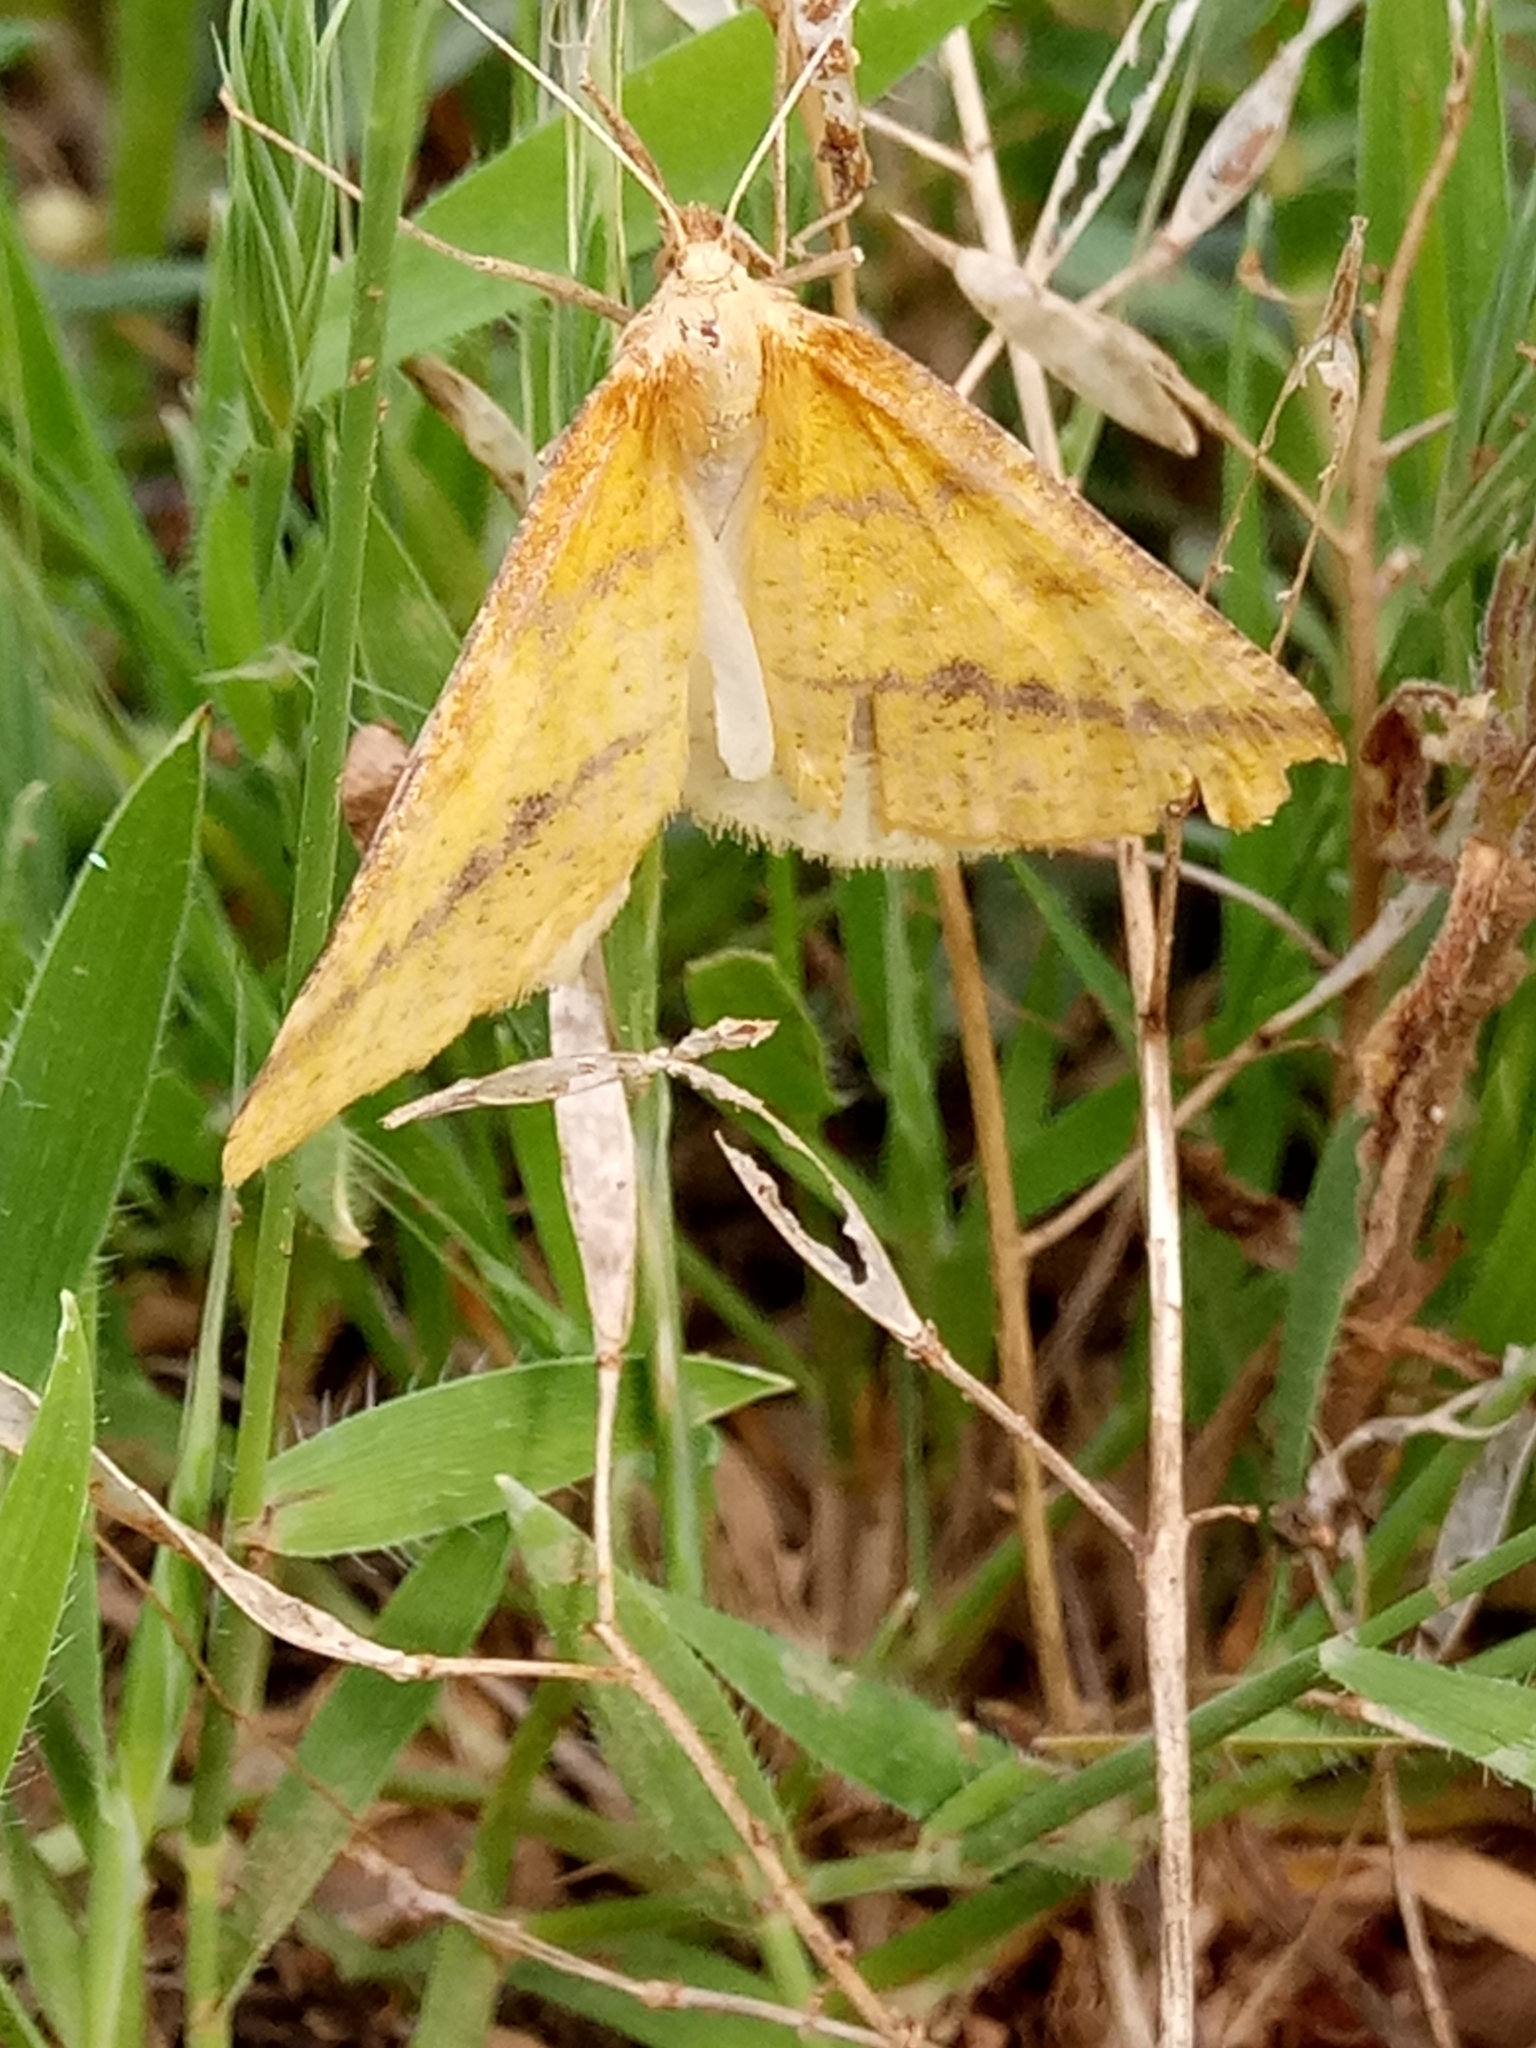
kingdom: Animalia
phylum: Arthropoda
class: Insecta
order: Lepidoptera
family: Geometridae
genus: Aspitates
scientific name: Aspitates ochrearia
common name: Yellow belle
